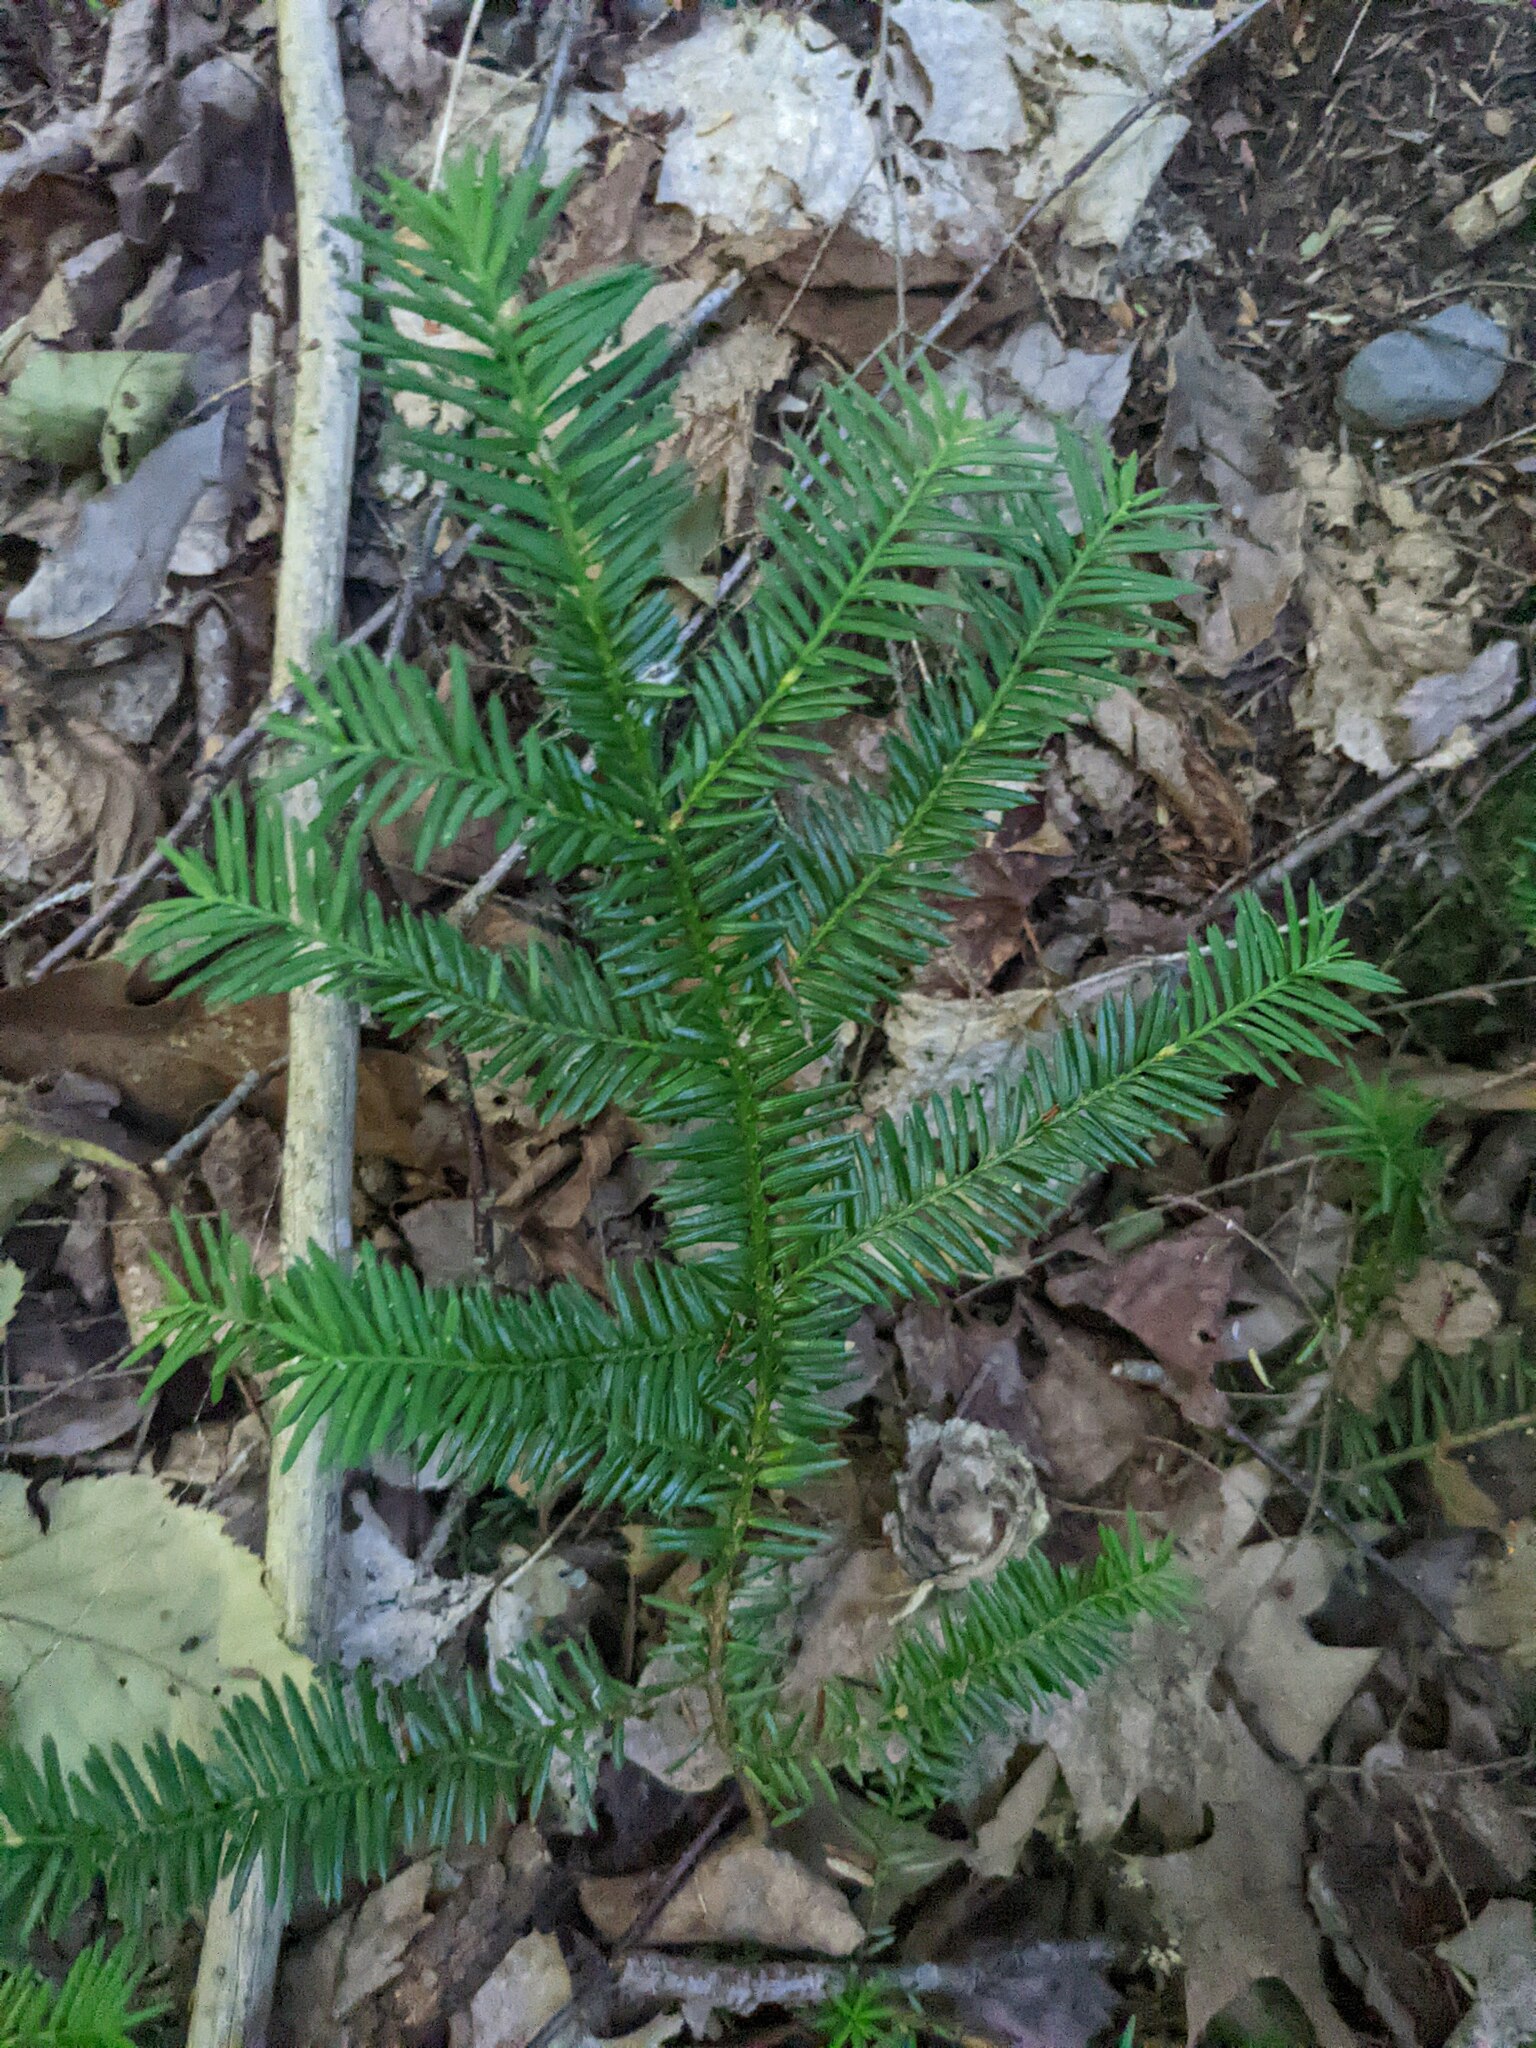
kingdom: Plantae
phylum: Tracheophyta
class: Pinopsida
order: Pinales
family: Taxaceae
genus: Taxus
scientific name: Taxus canadensis
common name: American yew
